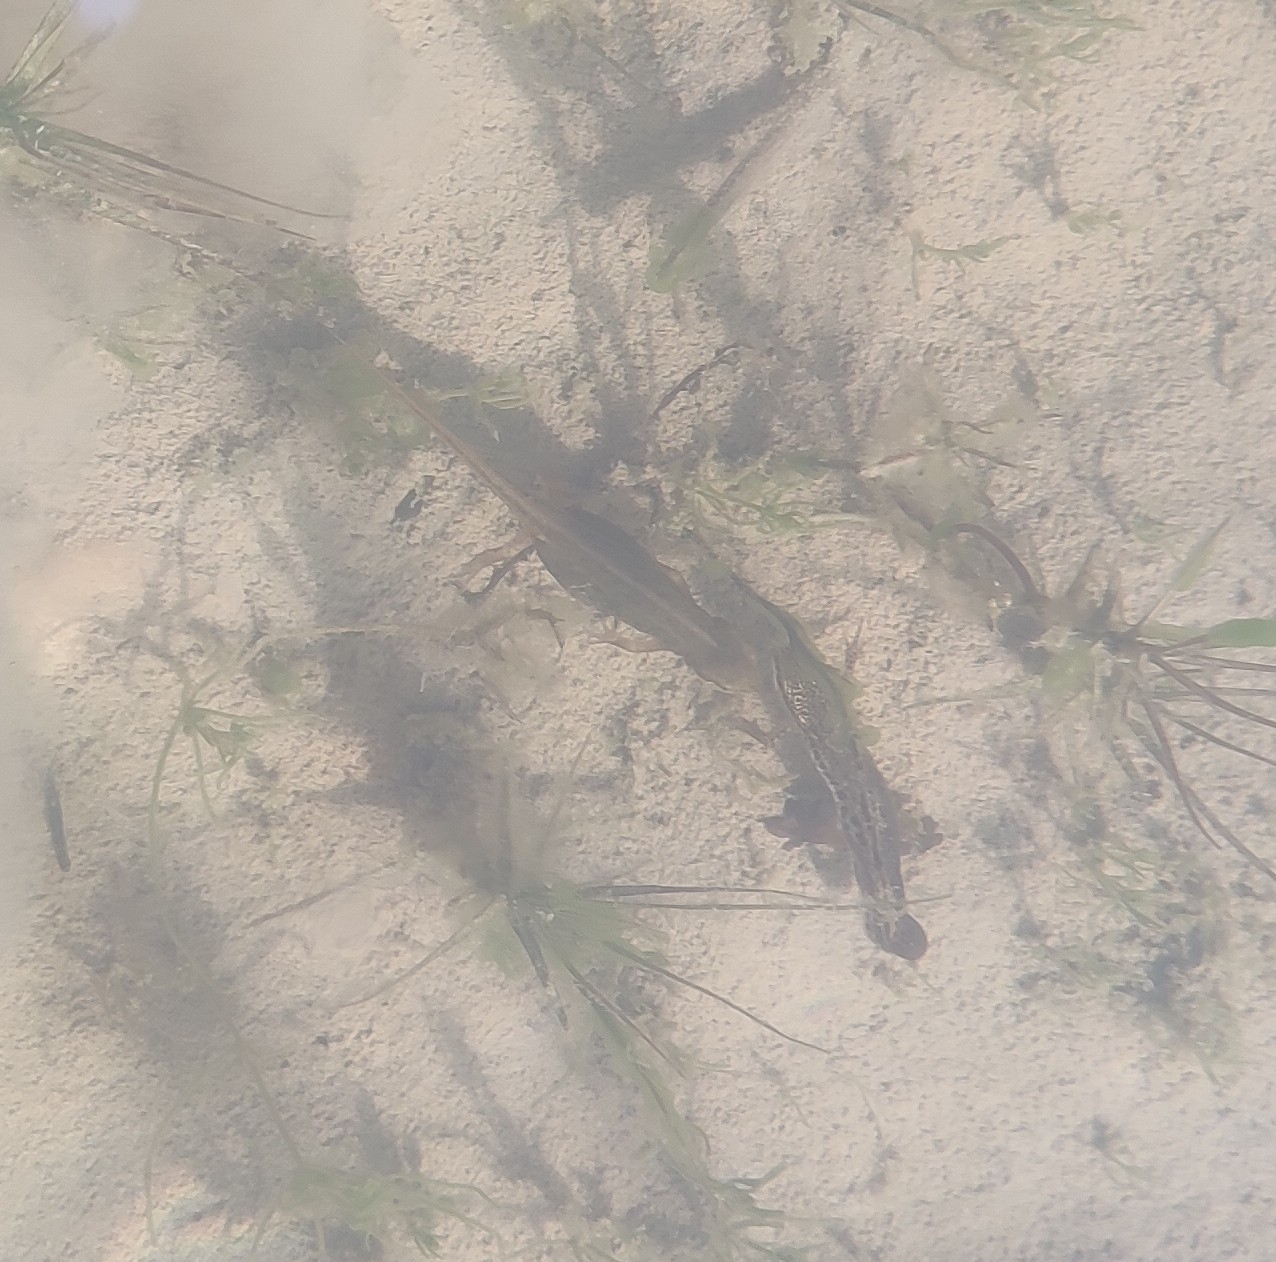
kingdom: Animalia
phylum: Chordata
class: Amphibia
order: Caudata
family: Salamandridae
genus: Lissotriton
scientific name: Lissotriton helveticus
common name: Palmate newt
